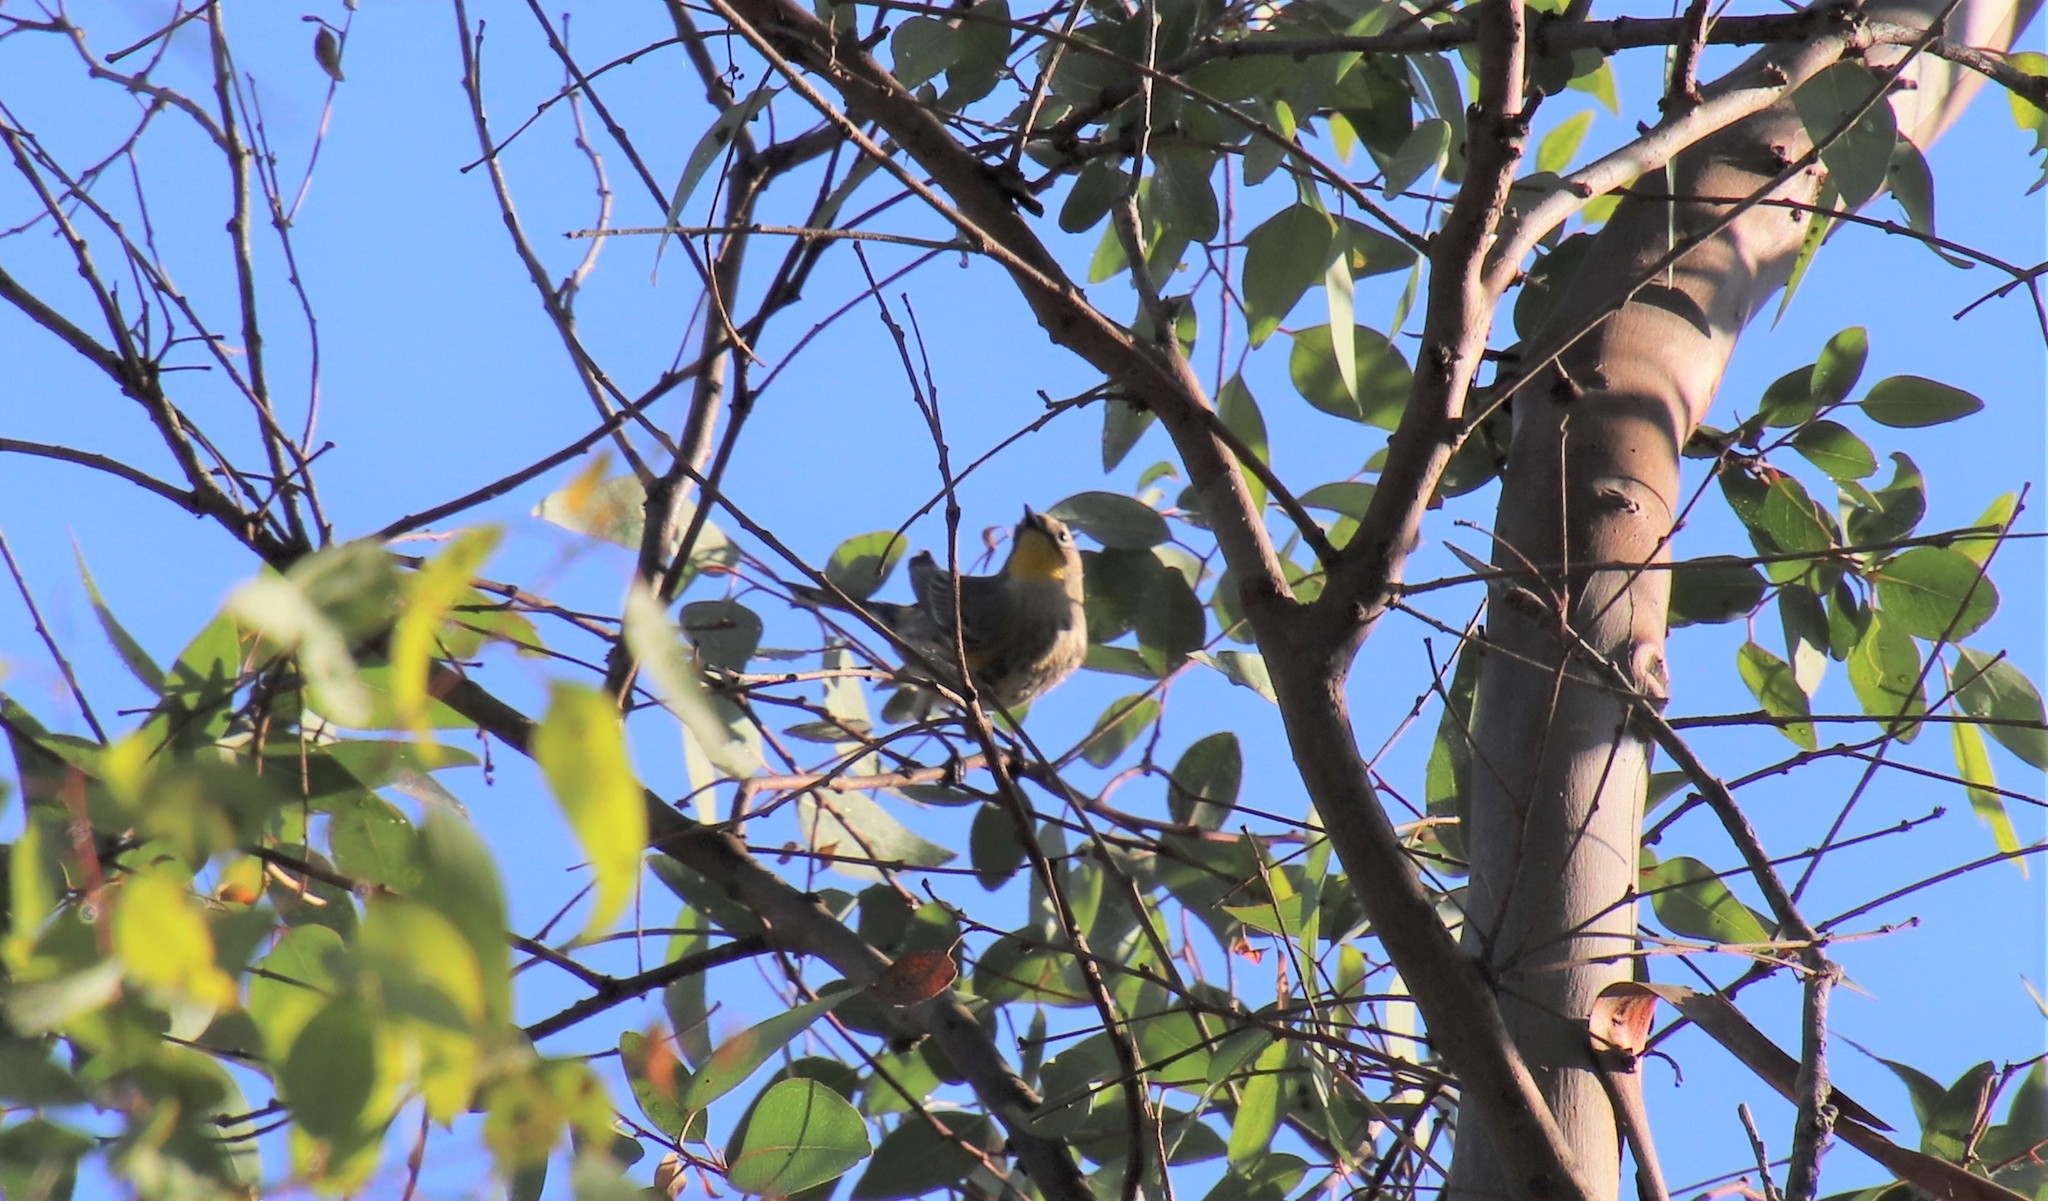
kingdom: Animalia
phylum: Chordata
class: Aves
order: Passeriformes
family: Parulidae
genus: Setophaga
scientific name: Setophaga auduboni
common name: Audubon's warbler
